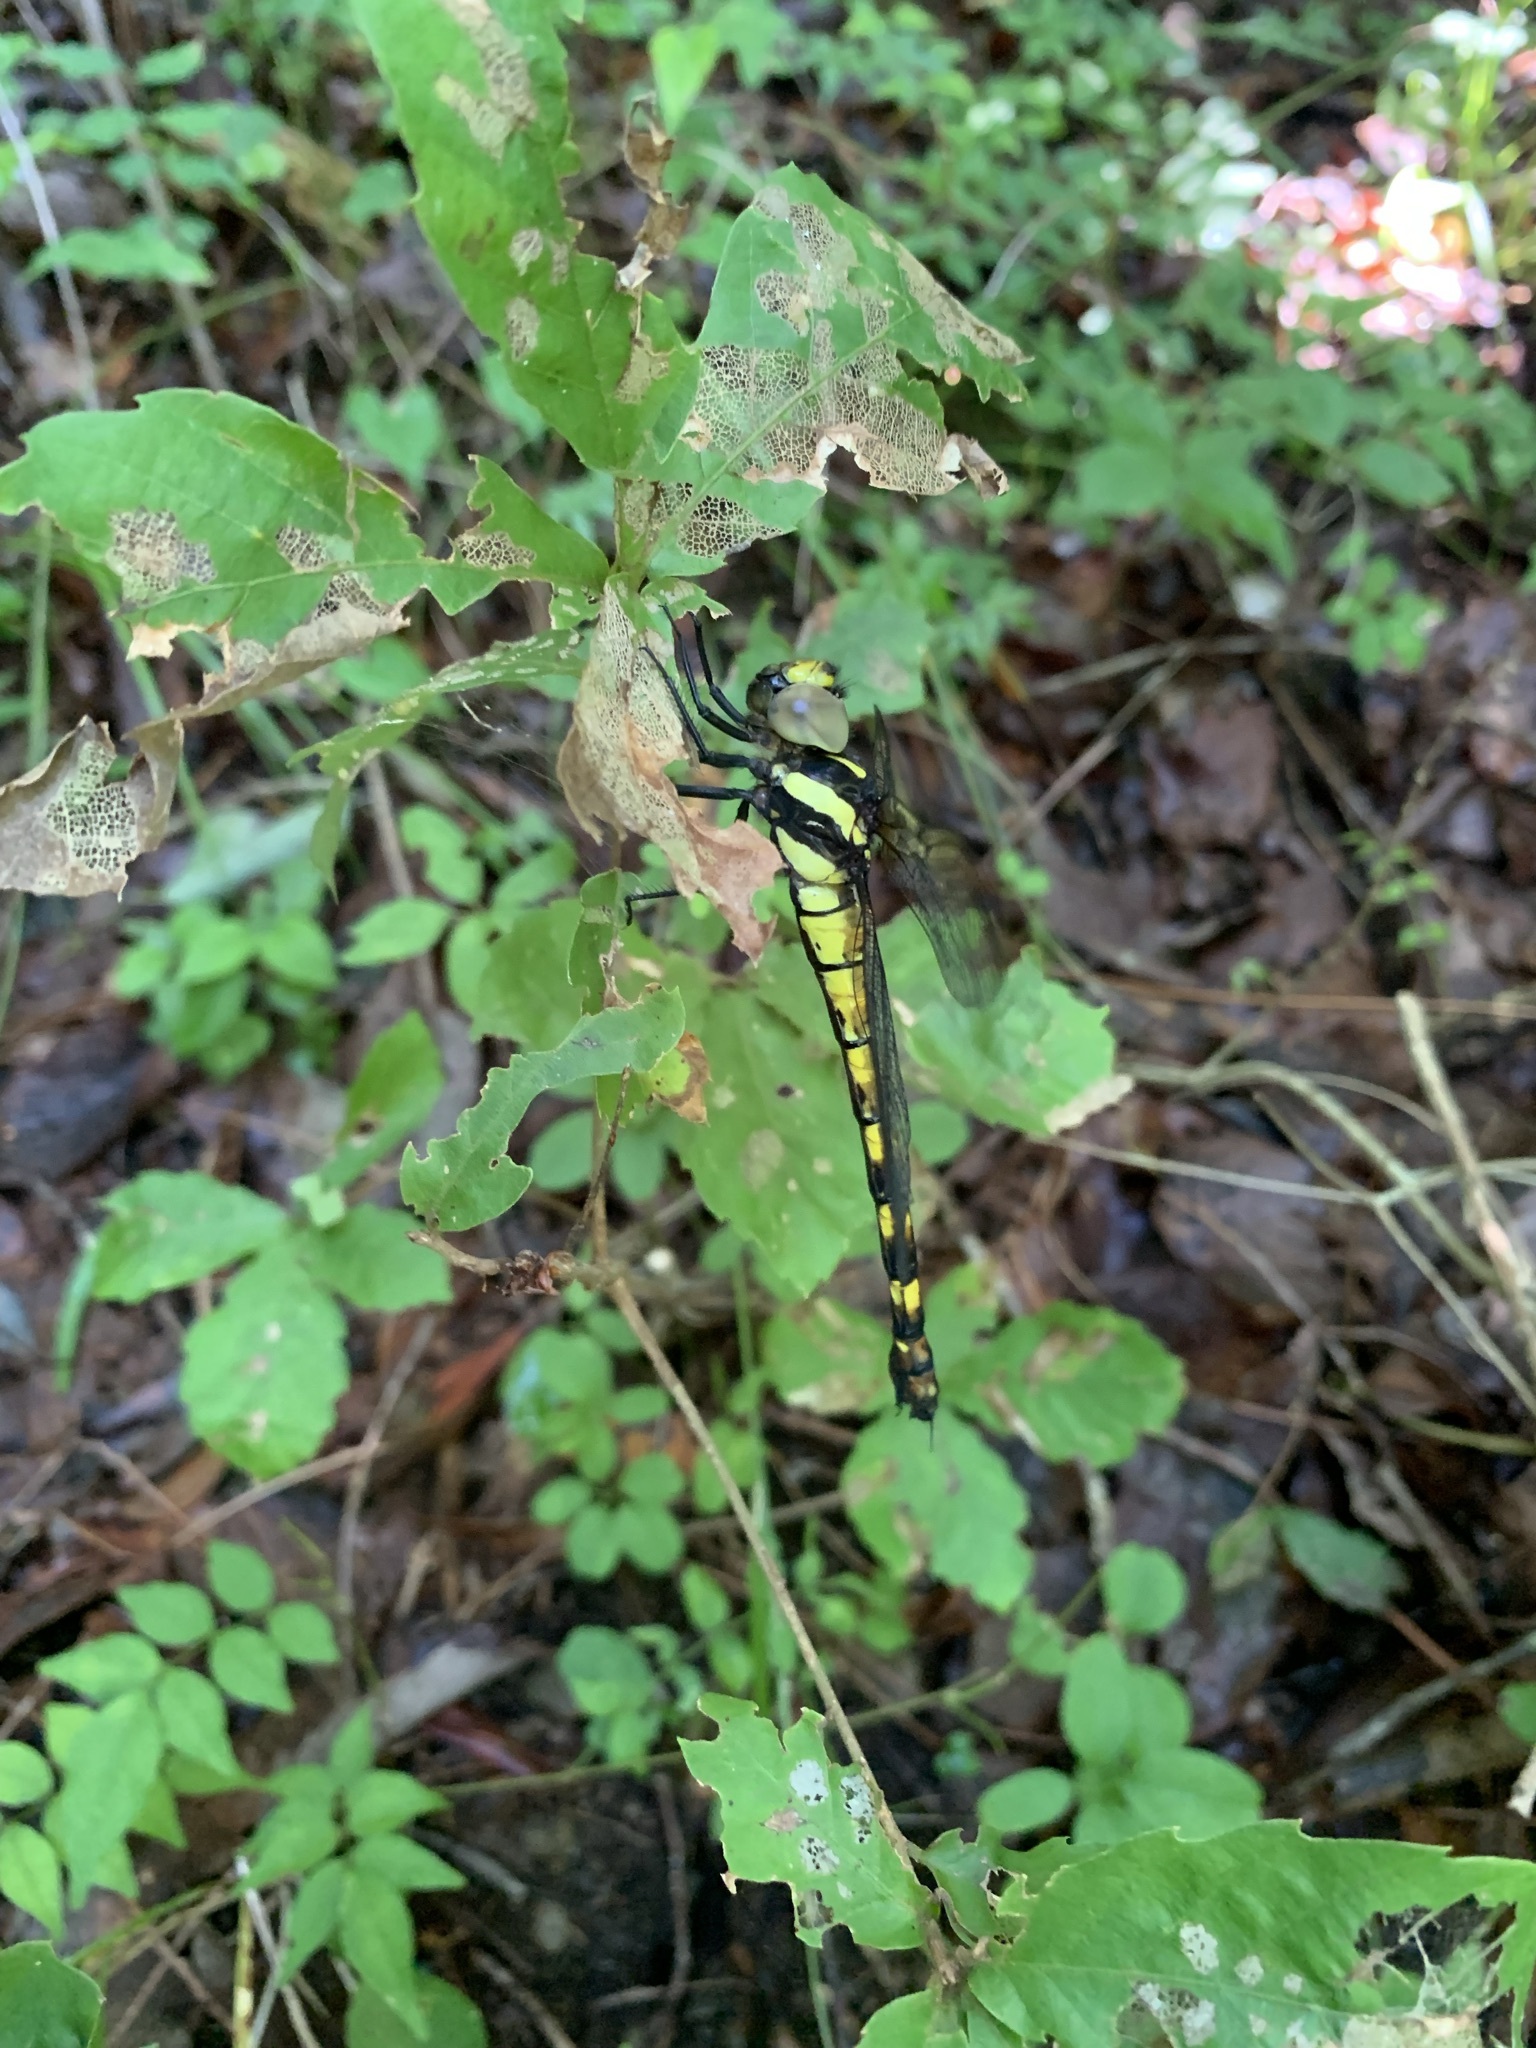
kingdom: Animalia
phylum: Arthropoda
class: Insecta
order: Odonata
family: Aeshnidae
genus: Indaeschna
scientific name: Indaeschna
